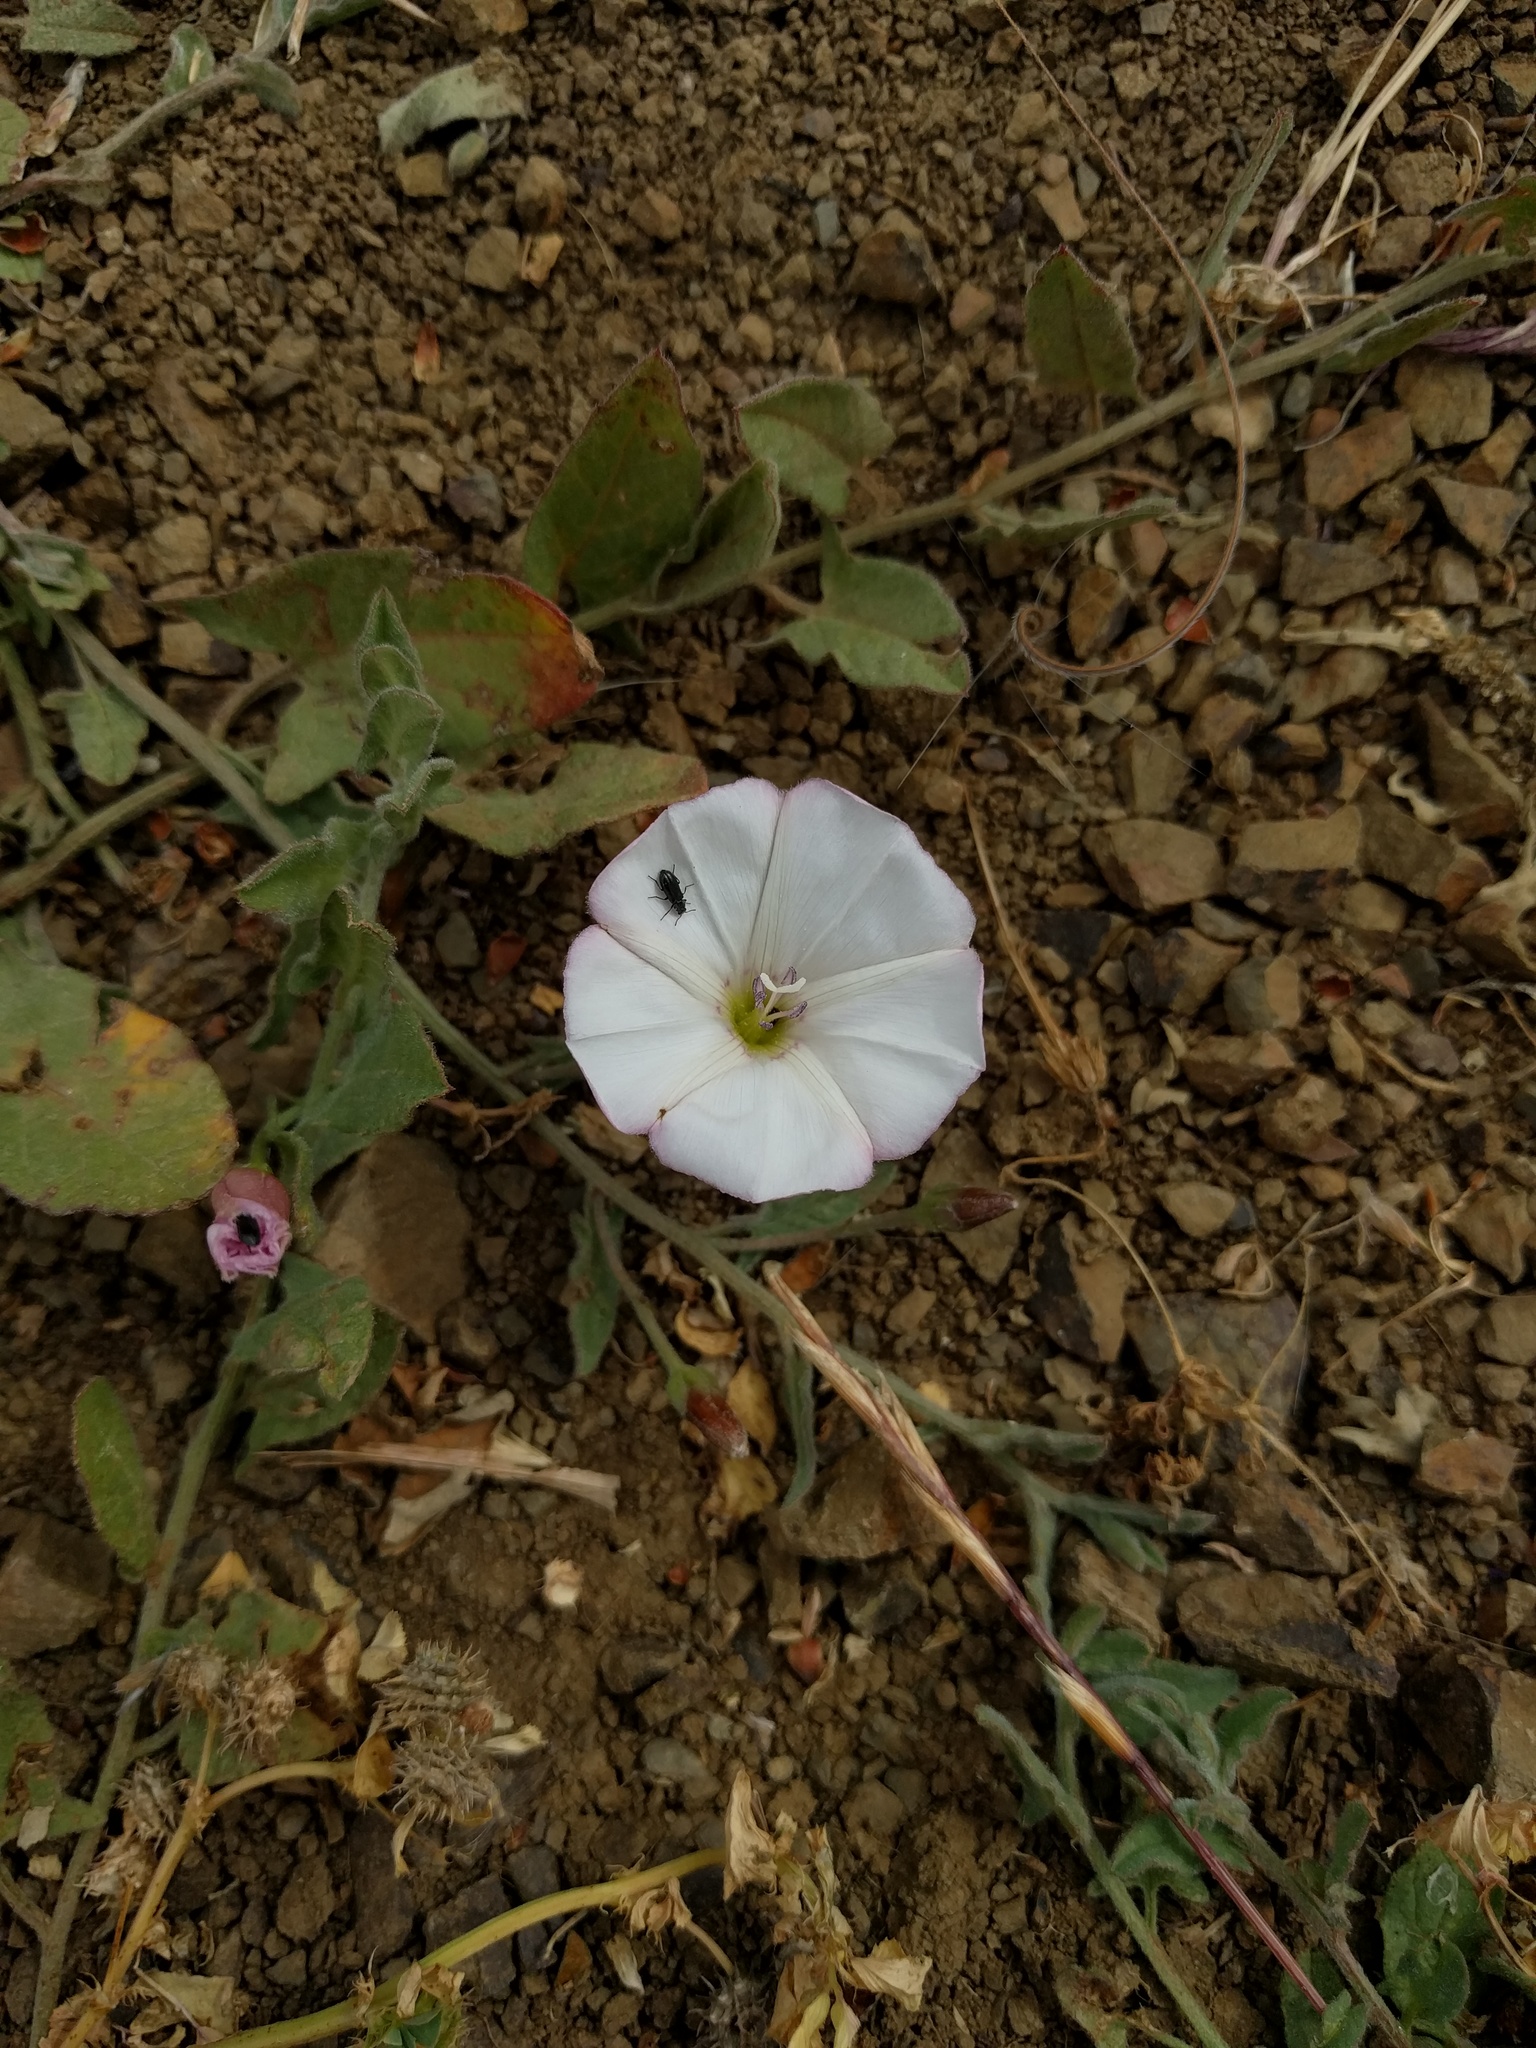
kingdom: Plantae
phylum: Tracheophyta
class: Magnoliopsida
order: Solanales
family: Convolvulaceae
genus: Convolvulus
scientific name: Convolvulus arvensis
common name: Field bindweed
